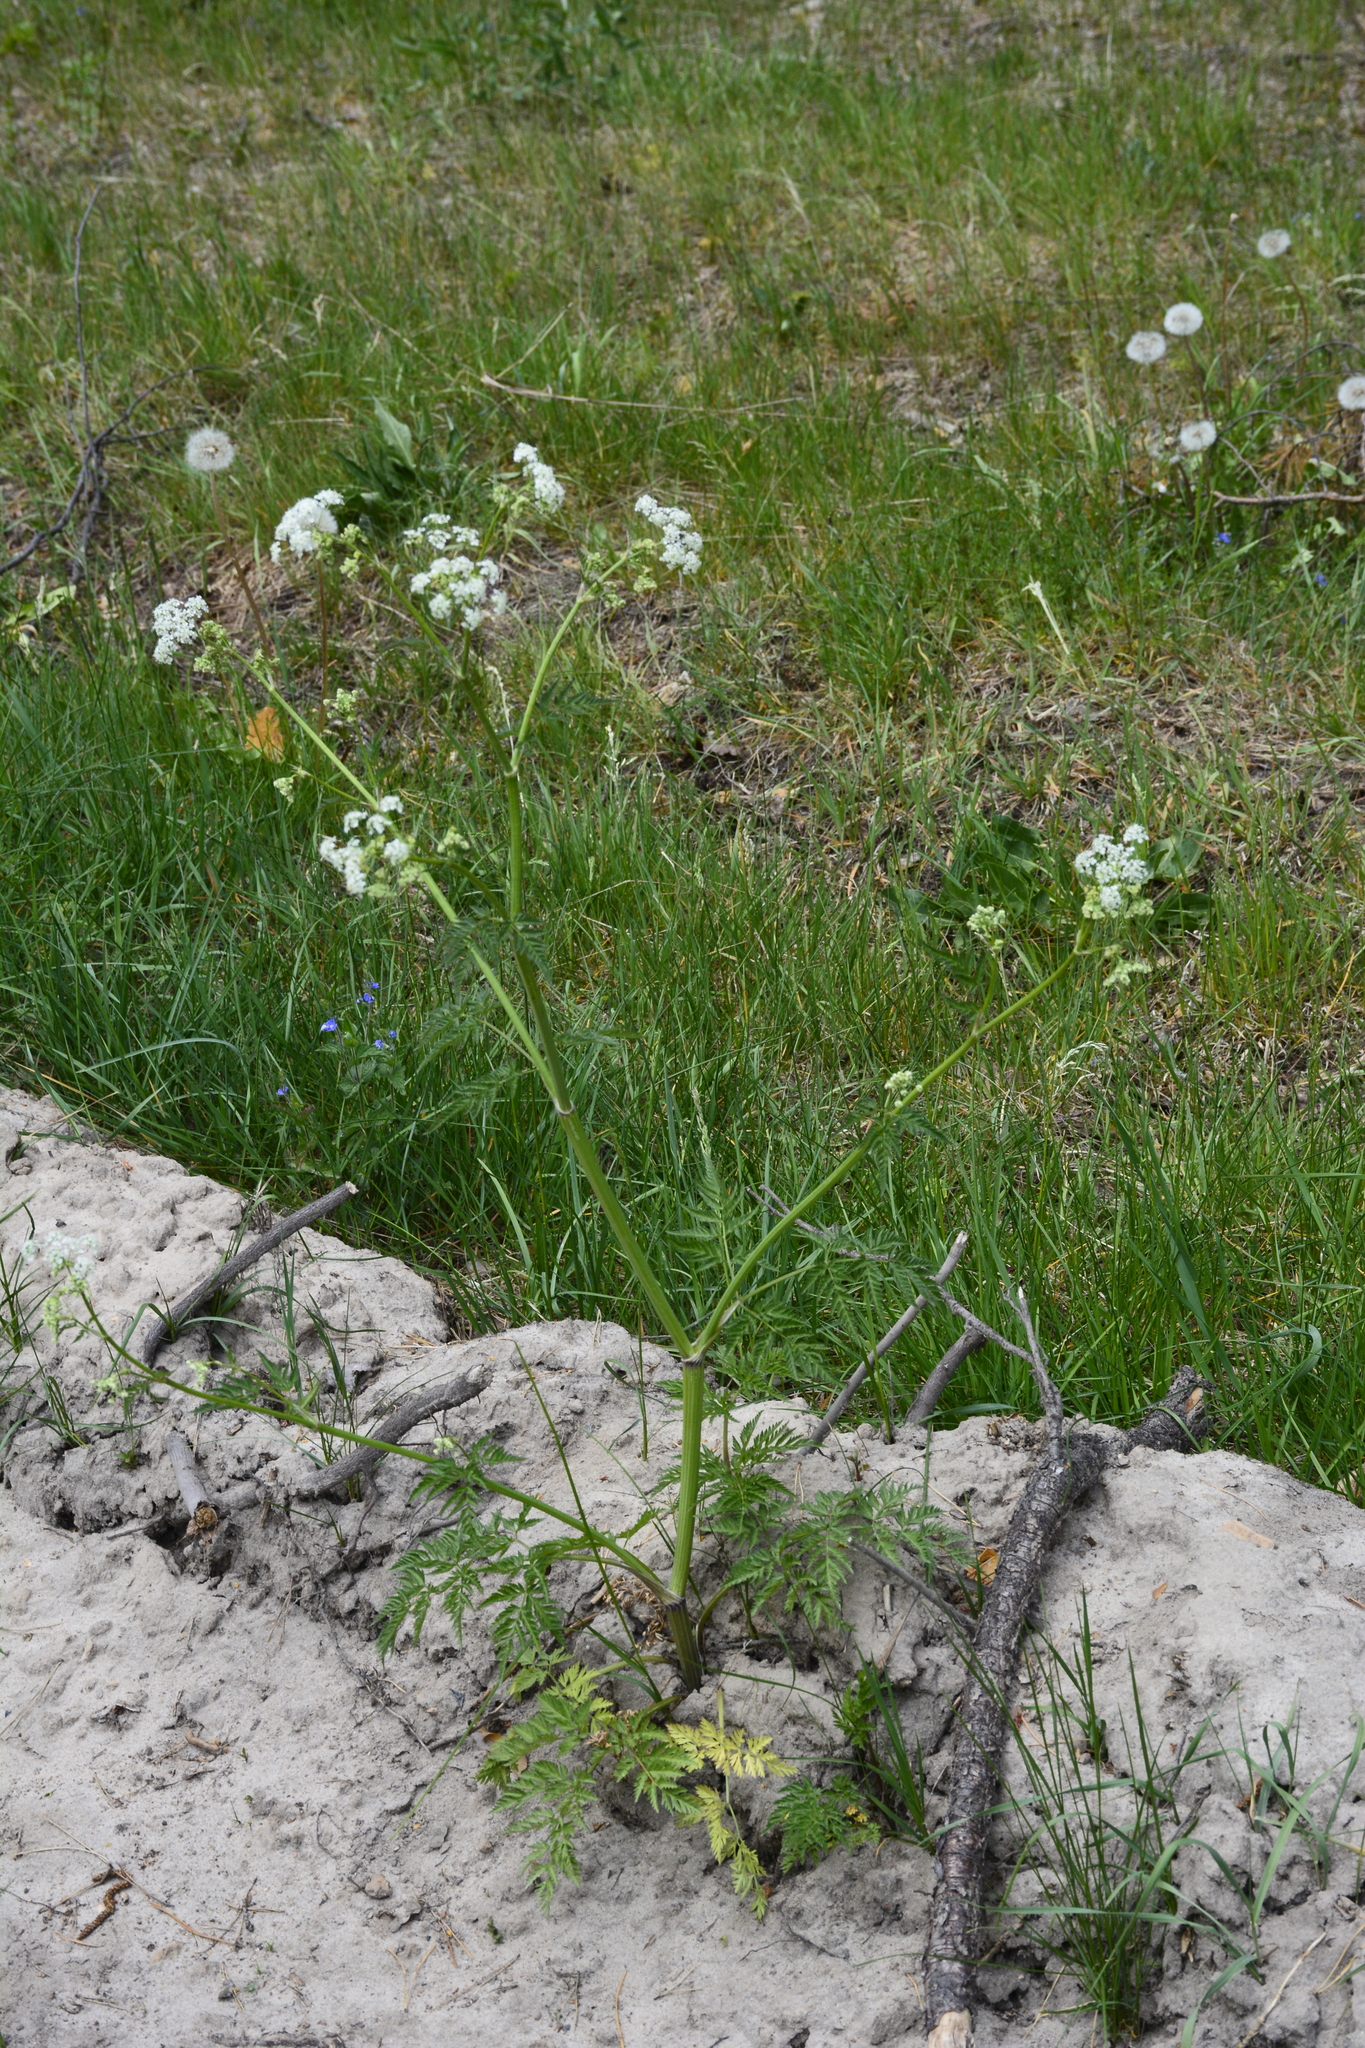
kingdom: Plantae
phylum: Tracheophyta
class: Magnoliopsida
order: Apiales
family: Apiaceae
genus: Anthriscus
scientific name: Anthriscus sylvestris
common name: Cow parsley
